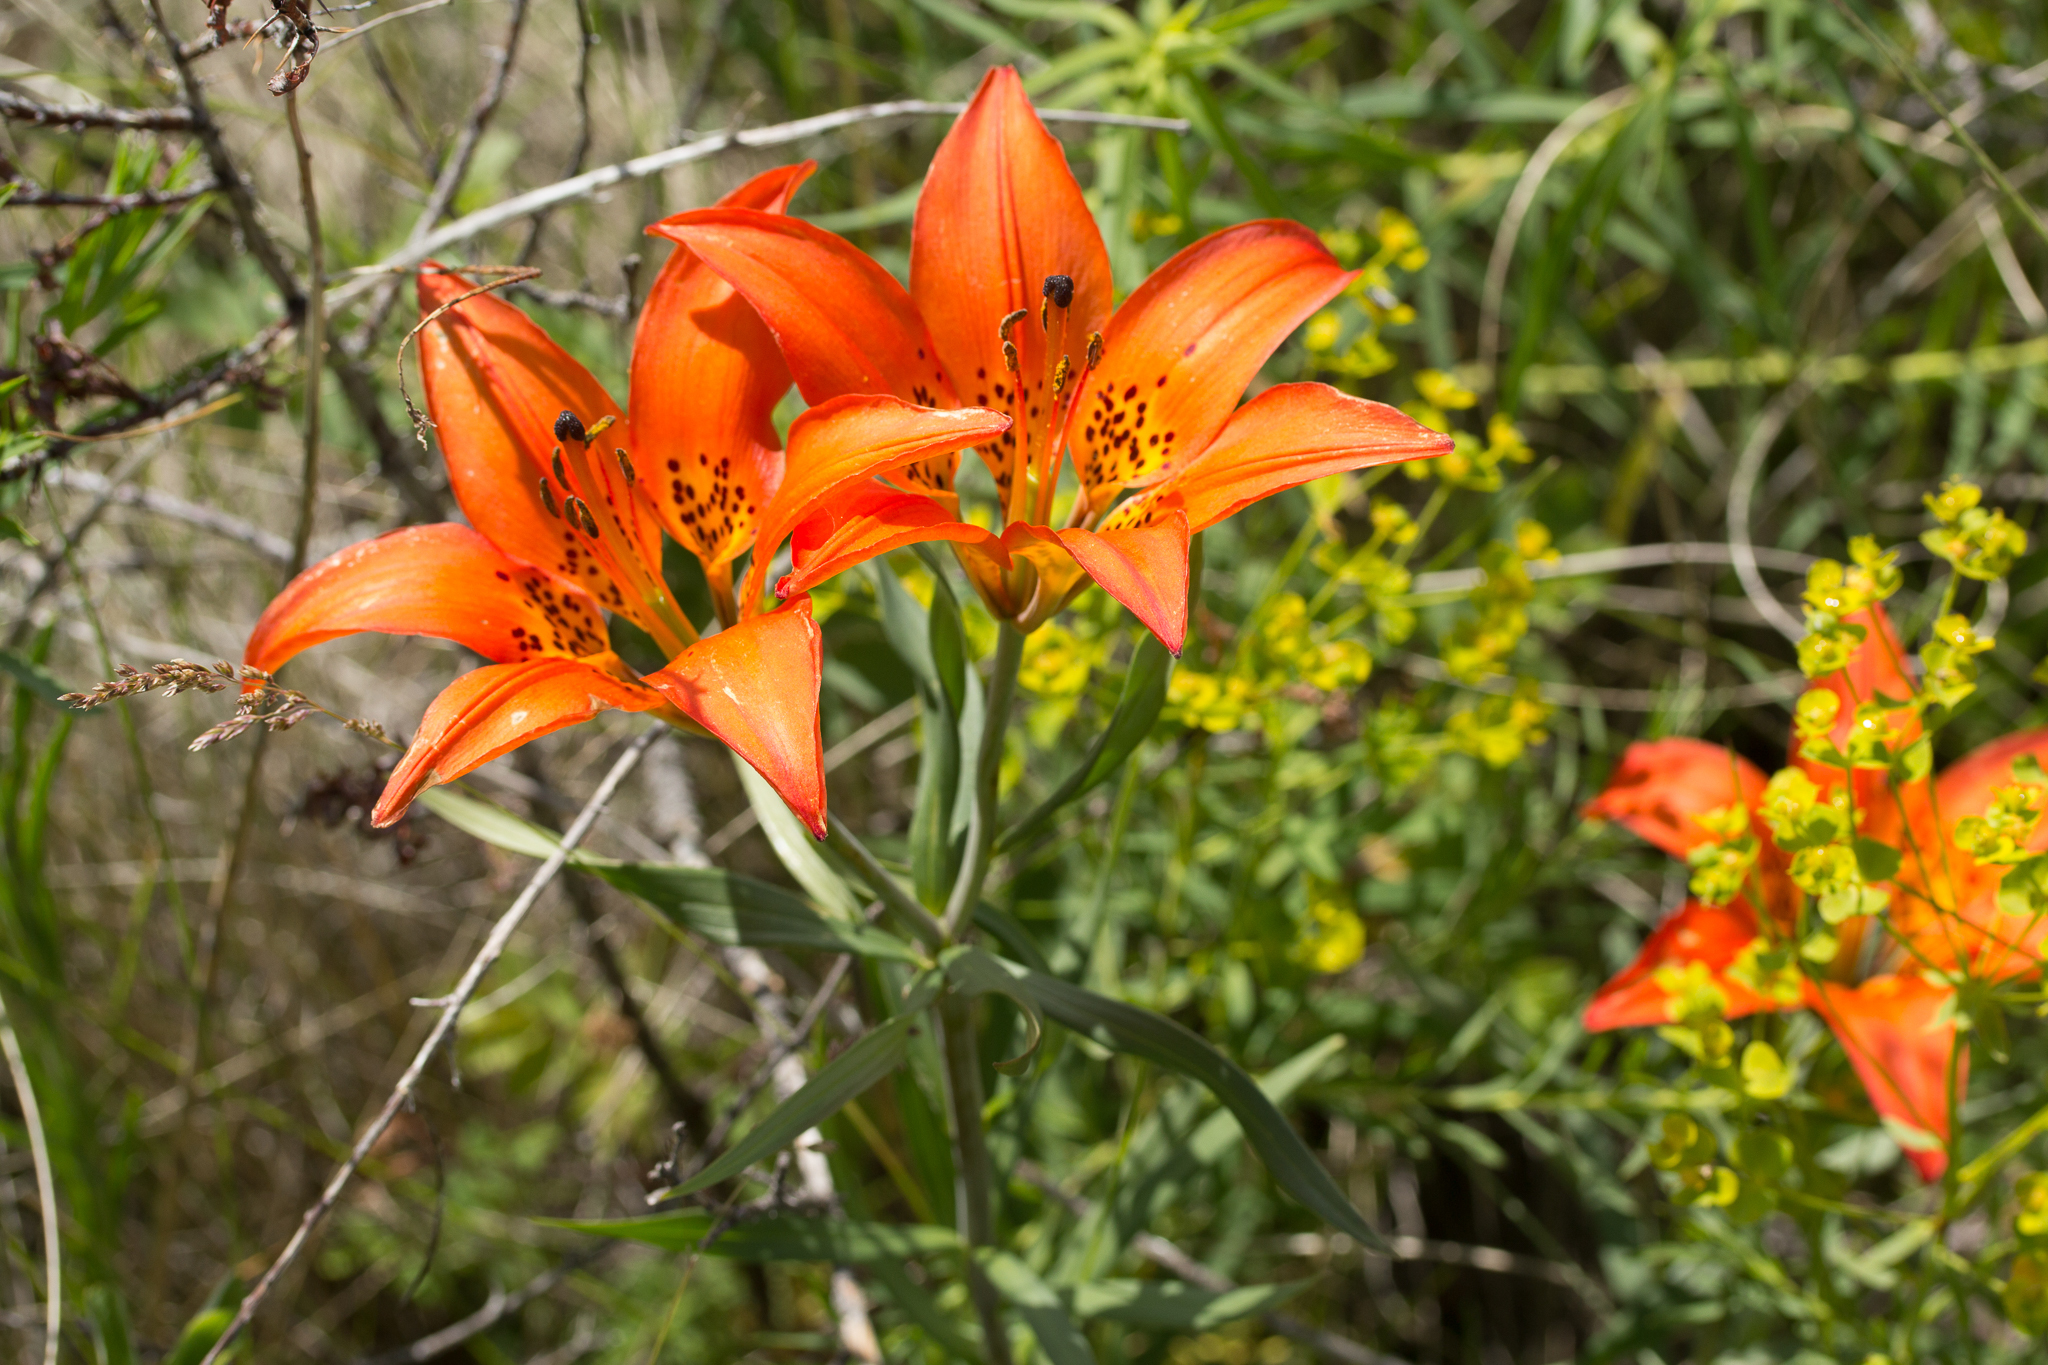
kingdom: Plantae
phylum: Tracheophyta
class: Liliopsida
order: Liliales
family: Liliaceae
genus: Lilium
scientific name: Lilium philadelphicum
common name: Red lily
